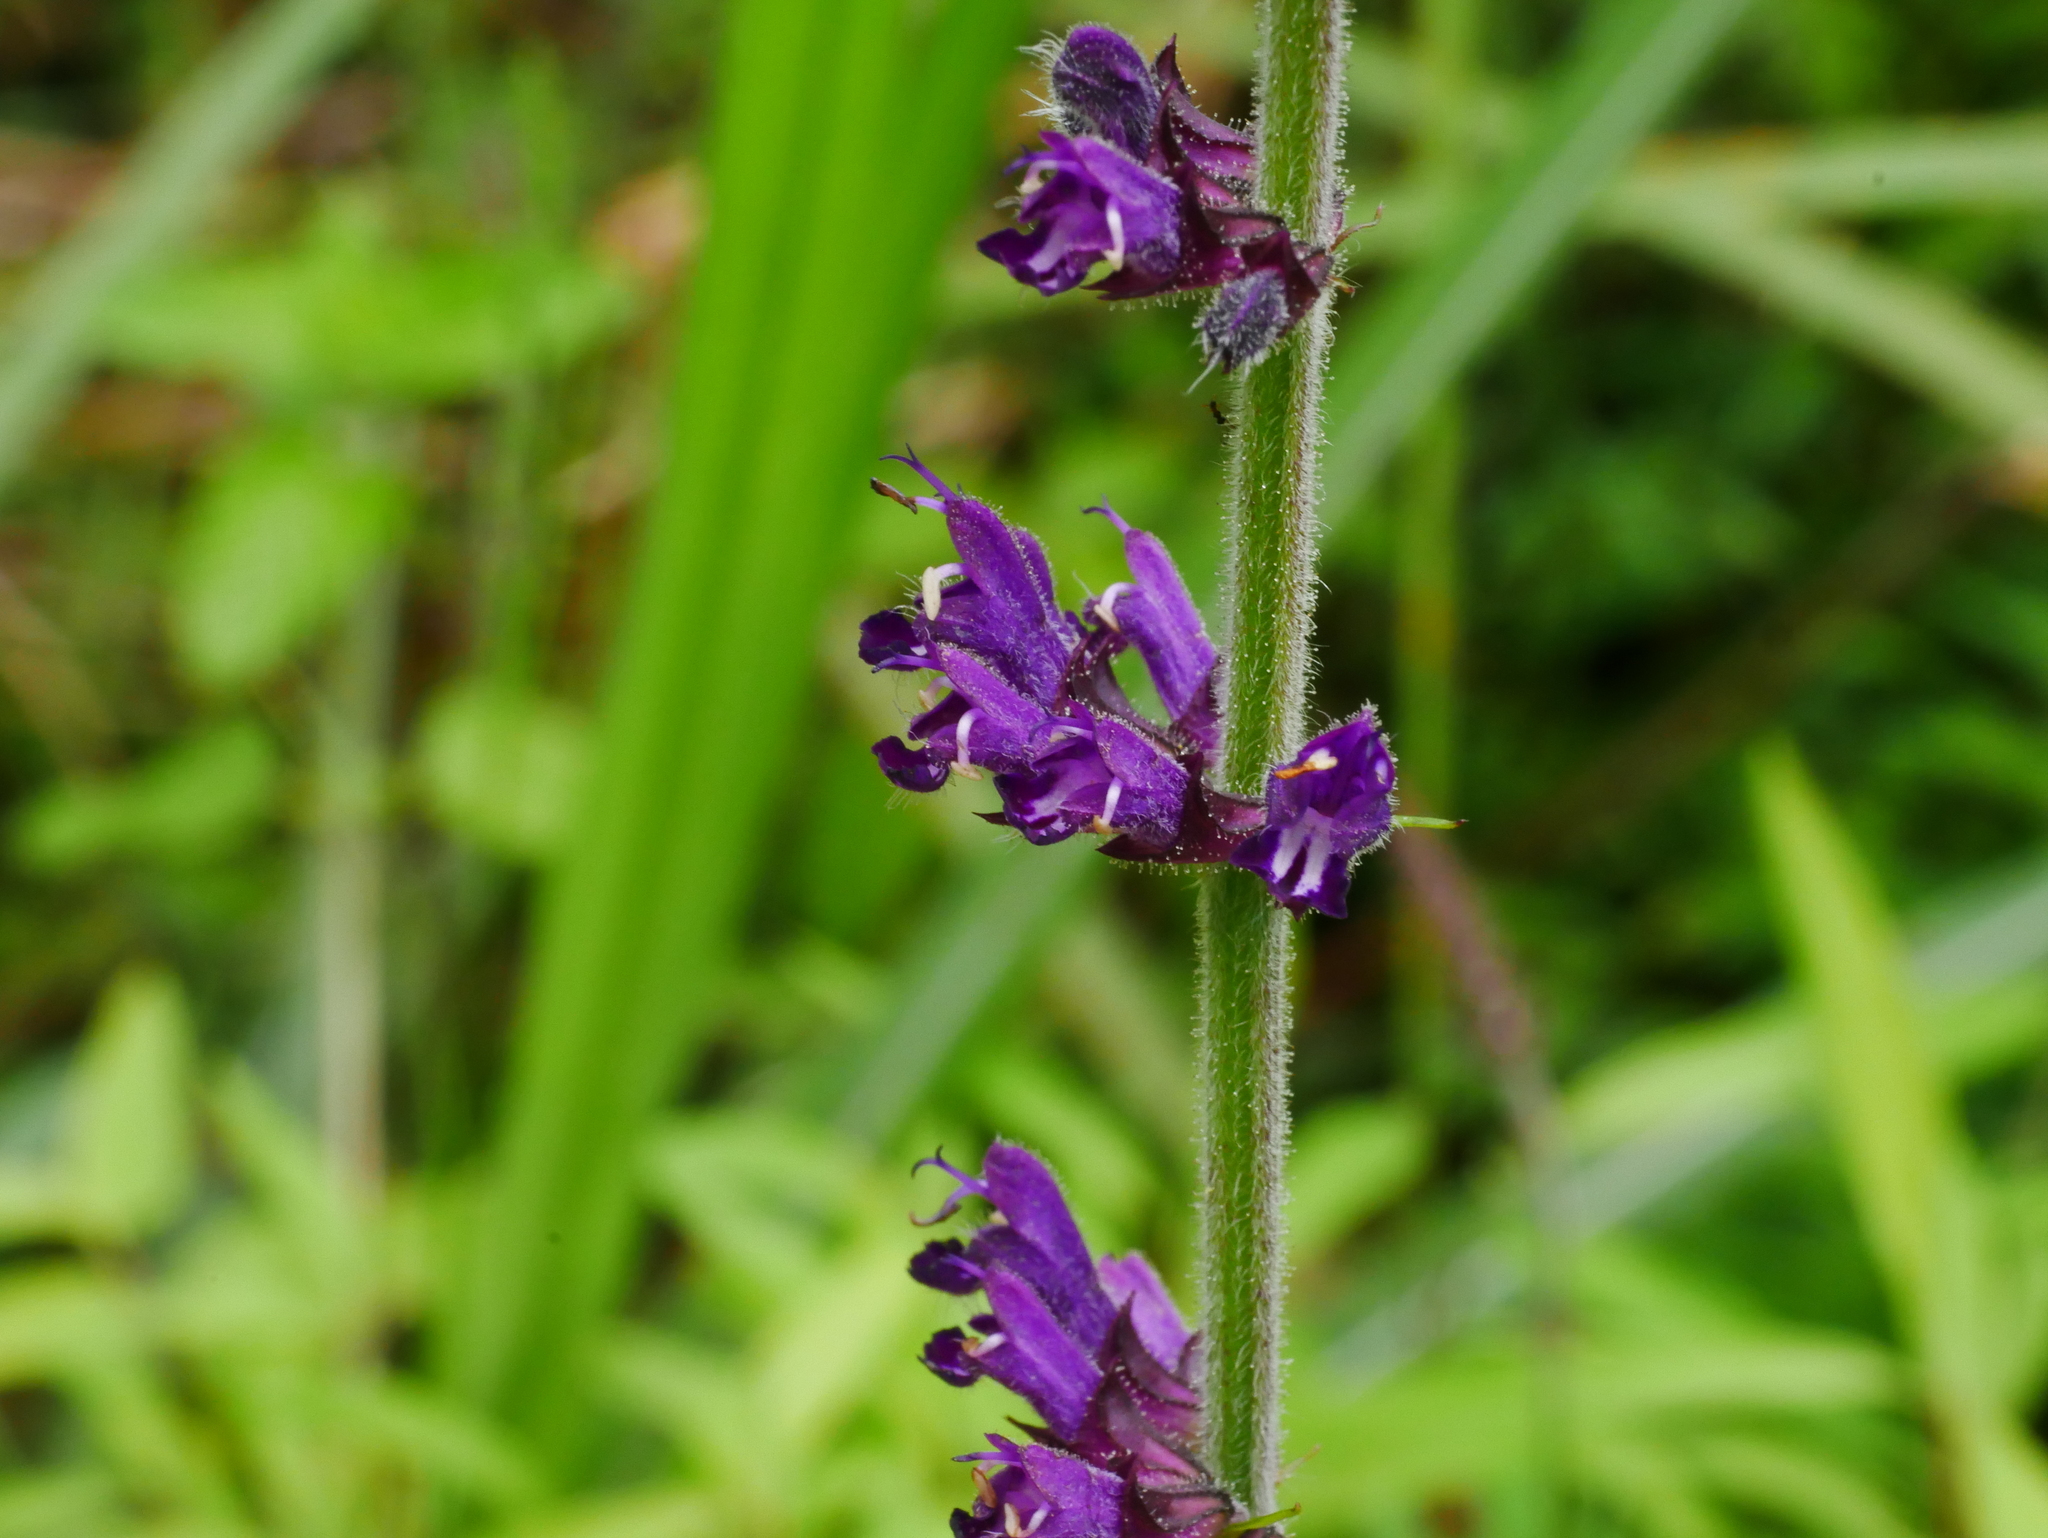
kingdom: Plantae
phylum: Tracheophyta
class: Magnoliopsida
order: Lamiales
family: Lamiaceae
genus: Salvia
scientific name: Salvia japonica
